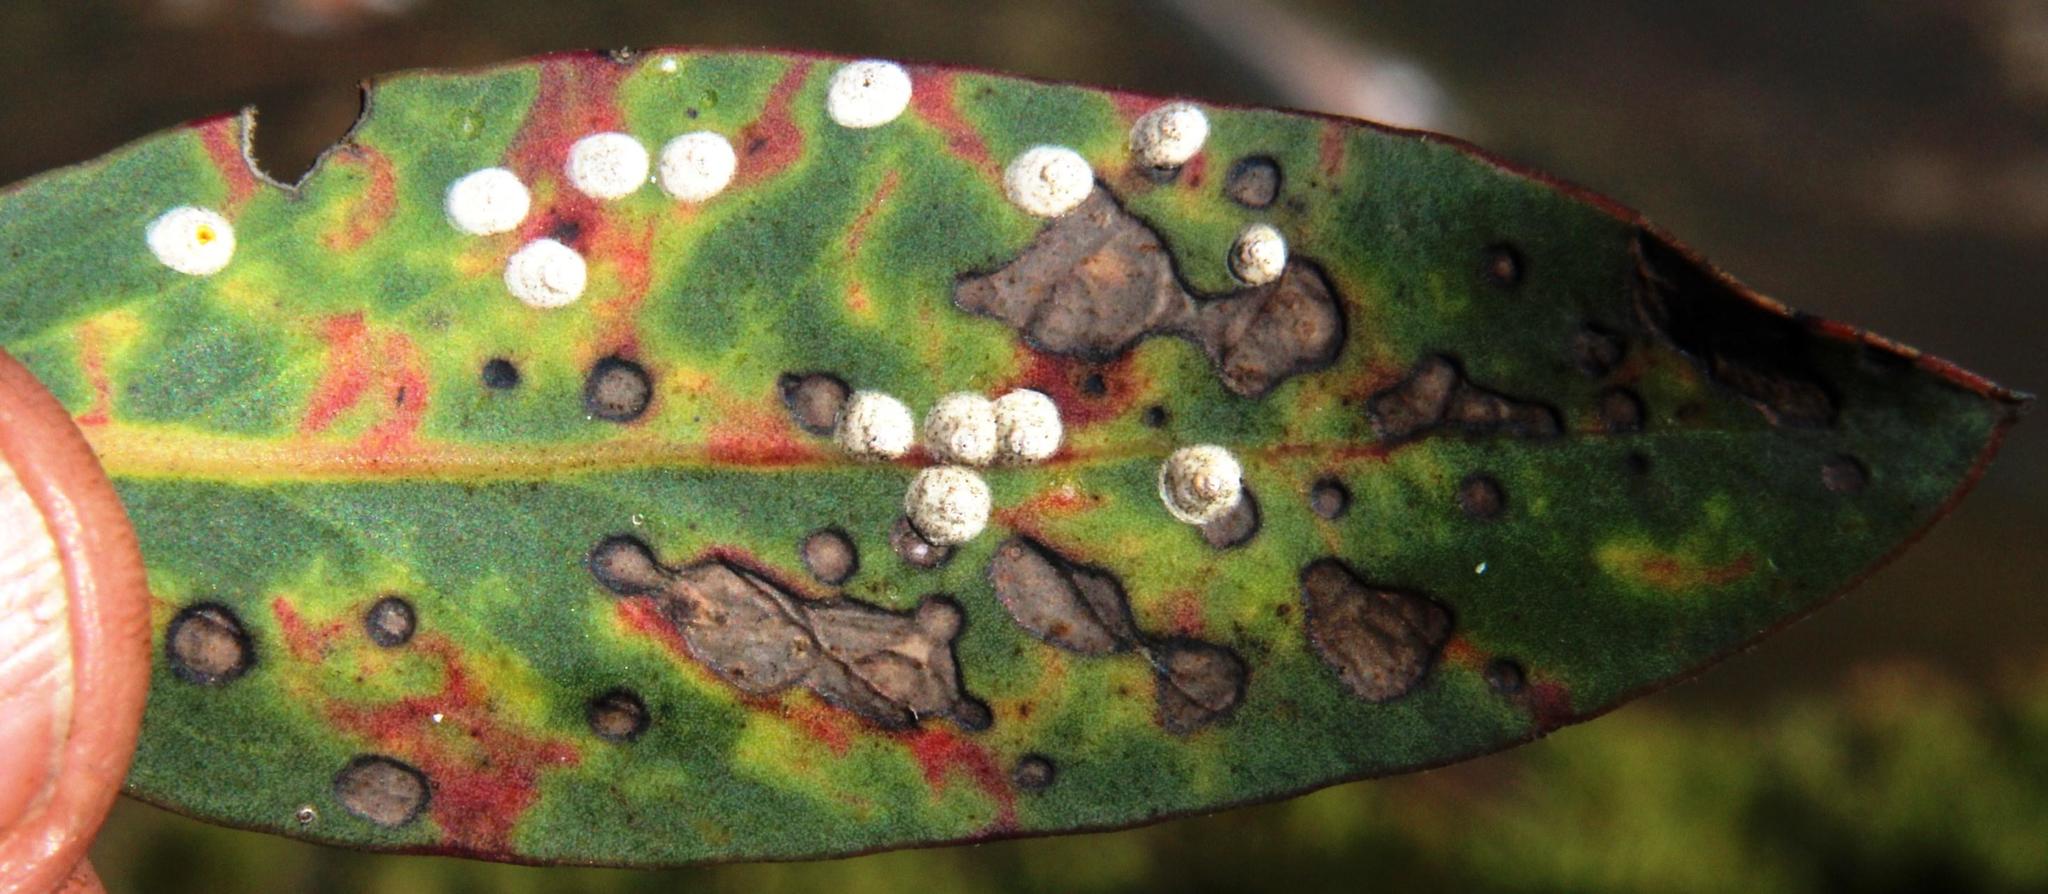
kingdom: Plantae
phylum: Tracheophyta
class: Magnoliopsida
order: Proteales
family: Proteaceae
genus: Protea
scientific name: Protea laurifolia
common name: Grey-leaf sugarbsh
